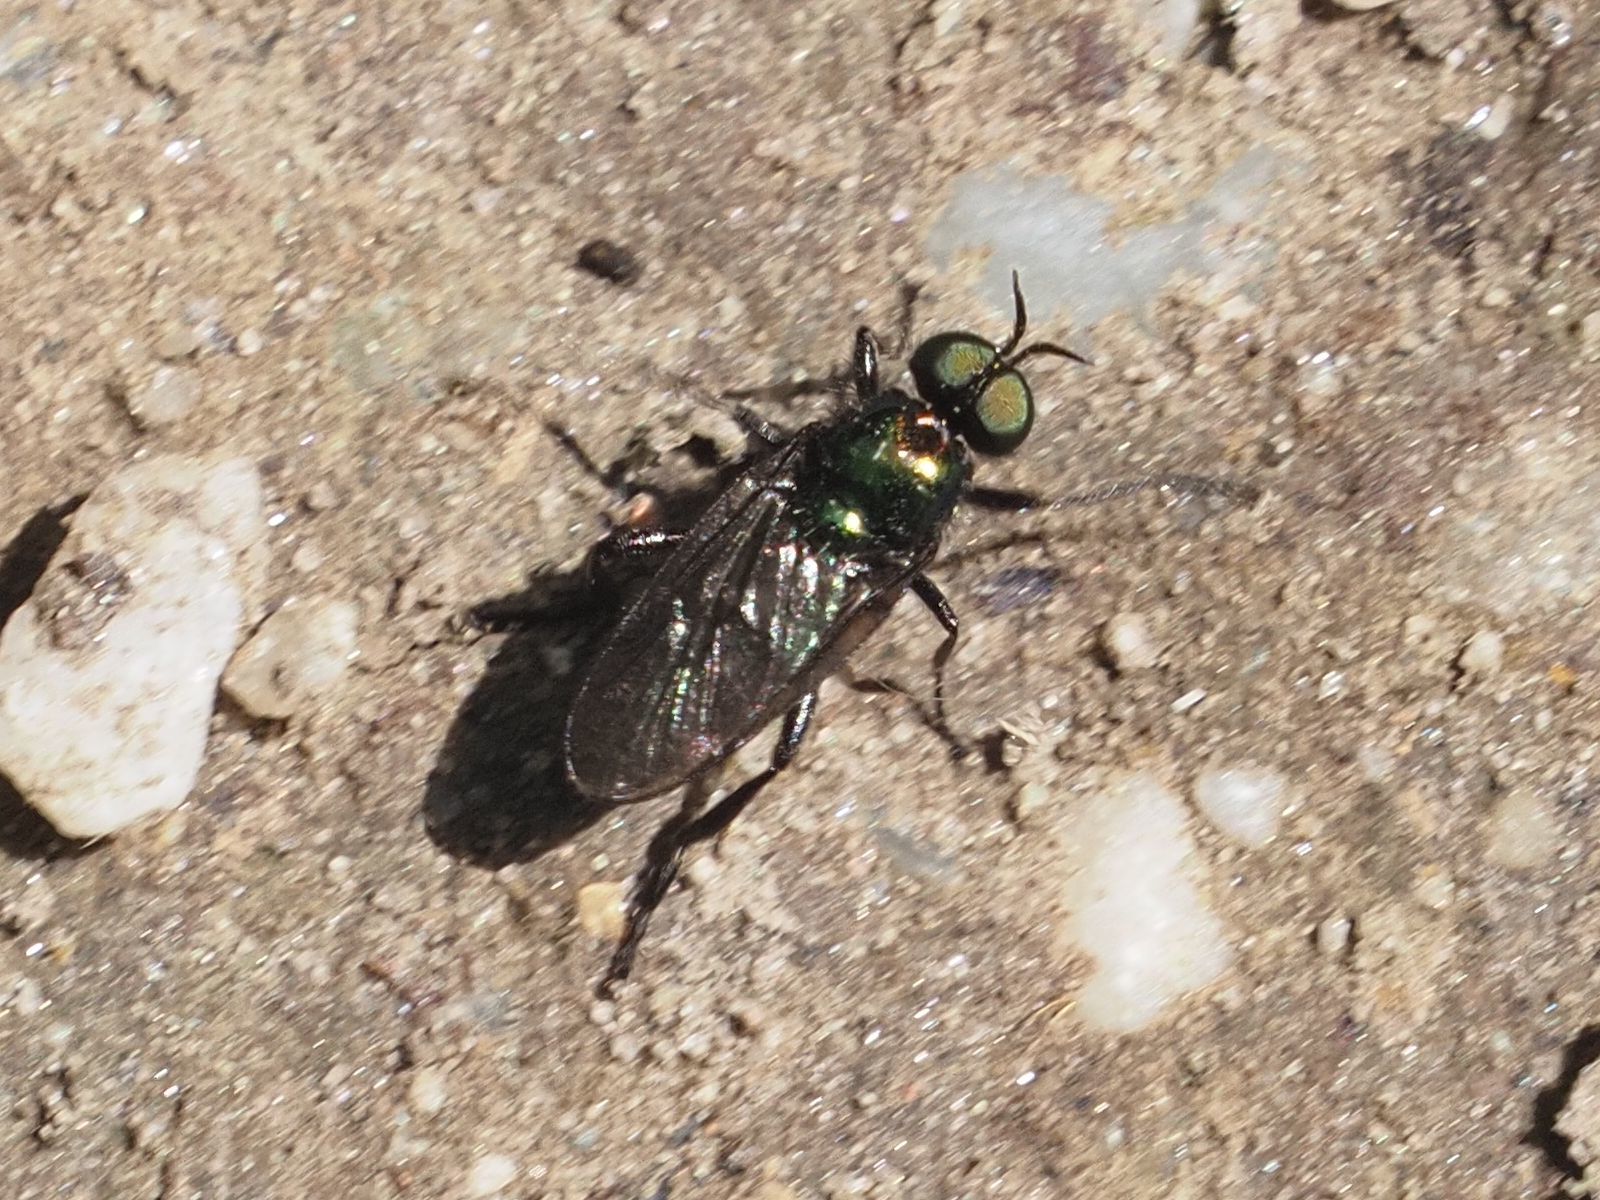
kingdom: Animalia
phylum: Arthropoda
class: Insecta
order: Diptera
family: Stratiomyidae
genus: Actina
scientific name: Actina chalybea
